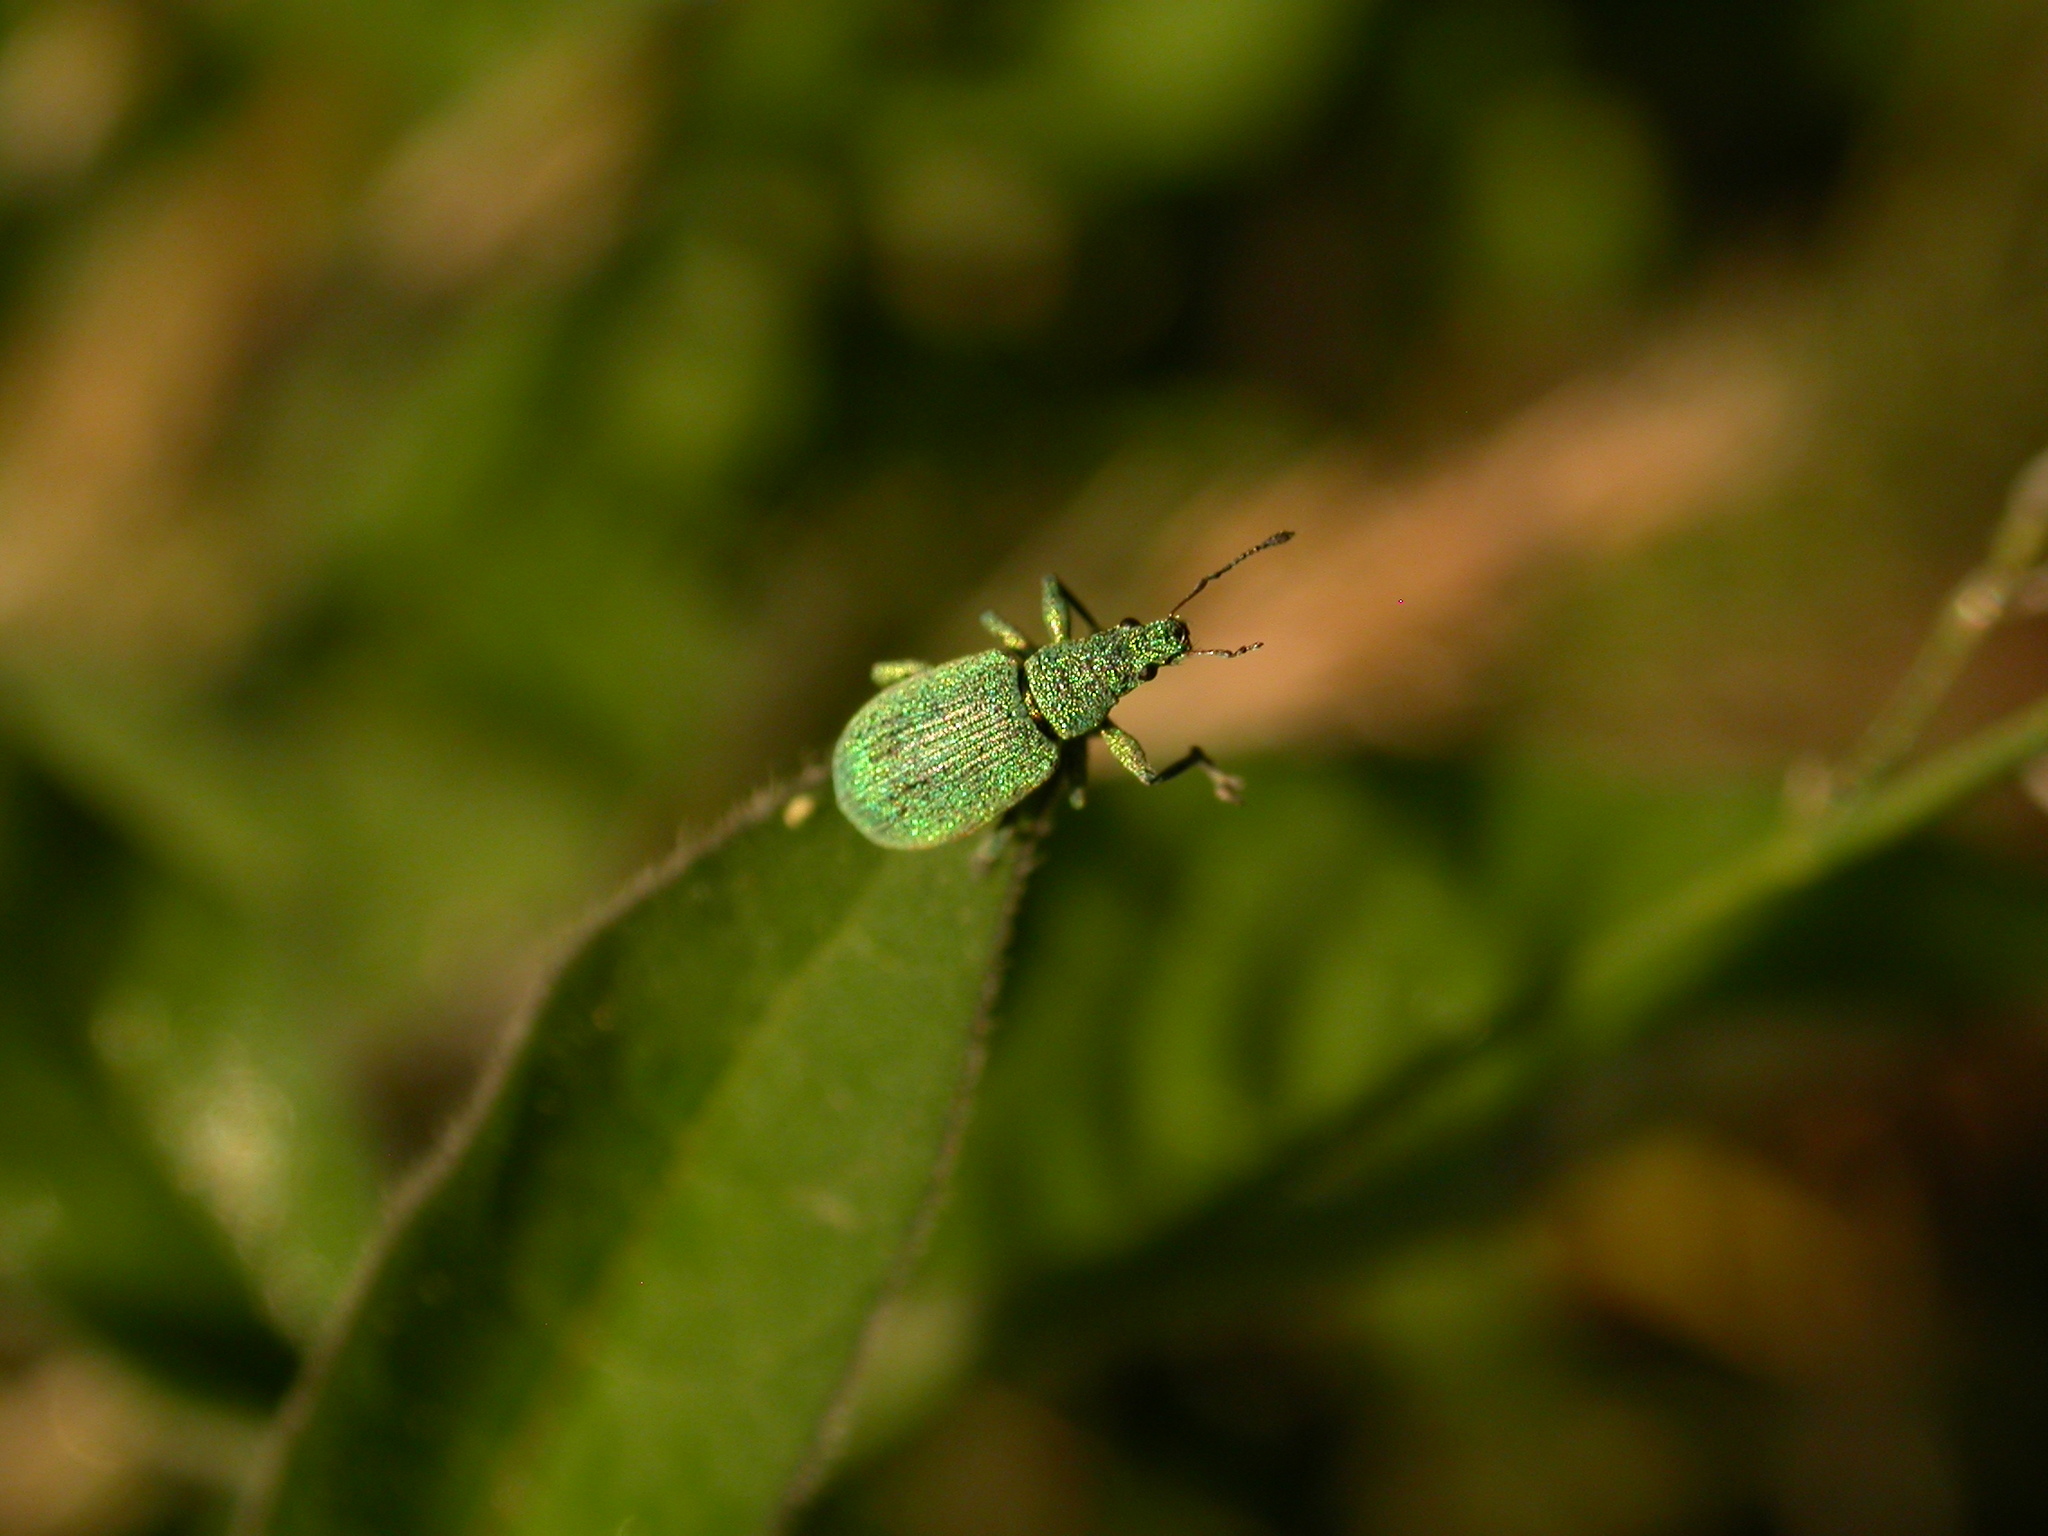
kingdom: Animalia
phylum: Arthropoda
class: Insecta
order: Coleoptera
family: Curculionidae
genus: Polydrusus
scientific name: Polydrusus planifrons
